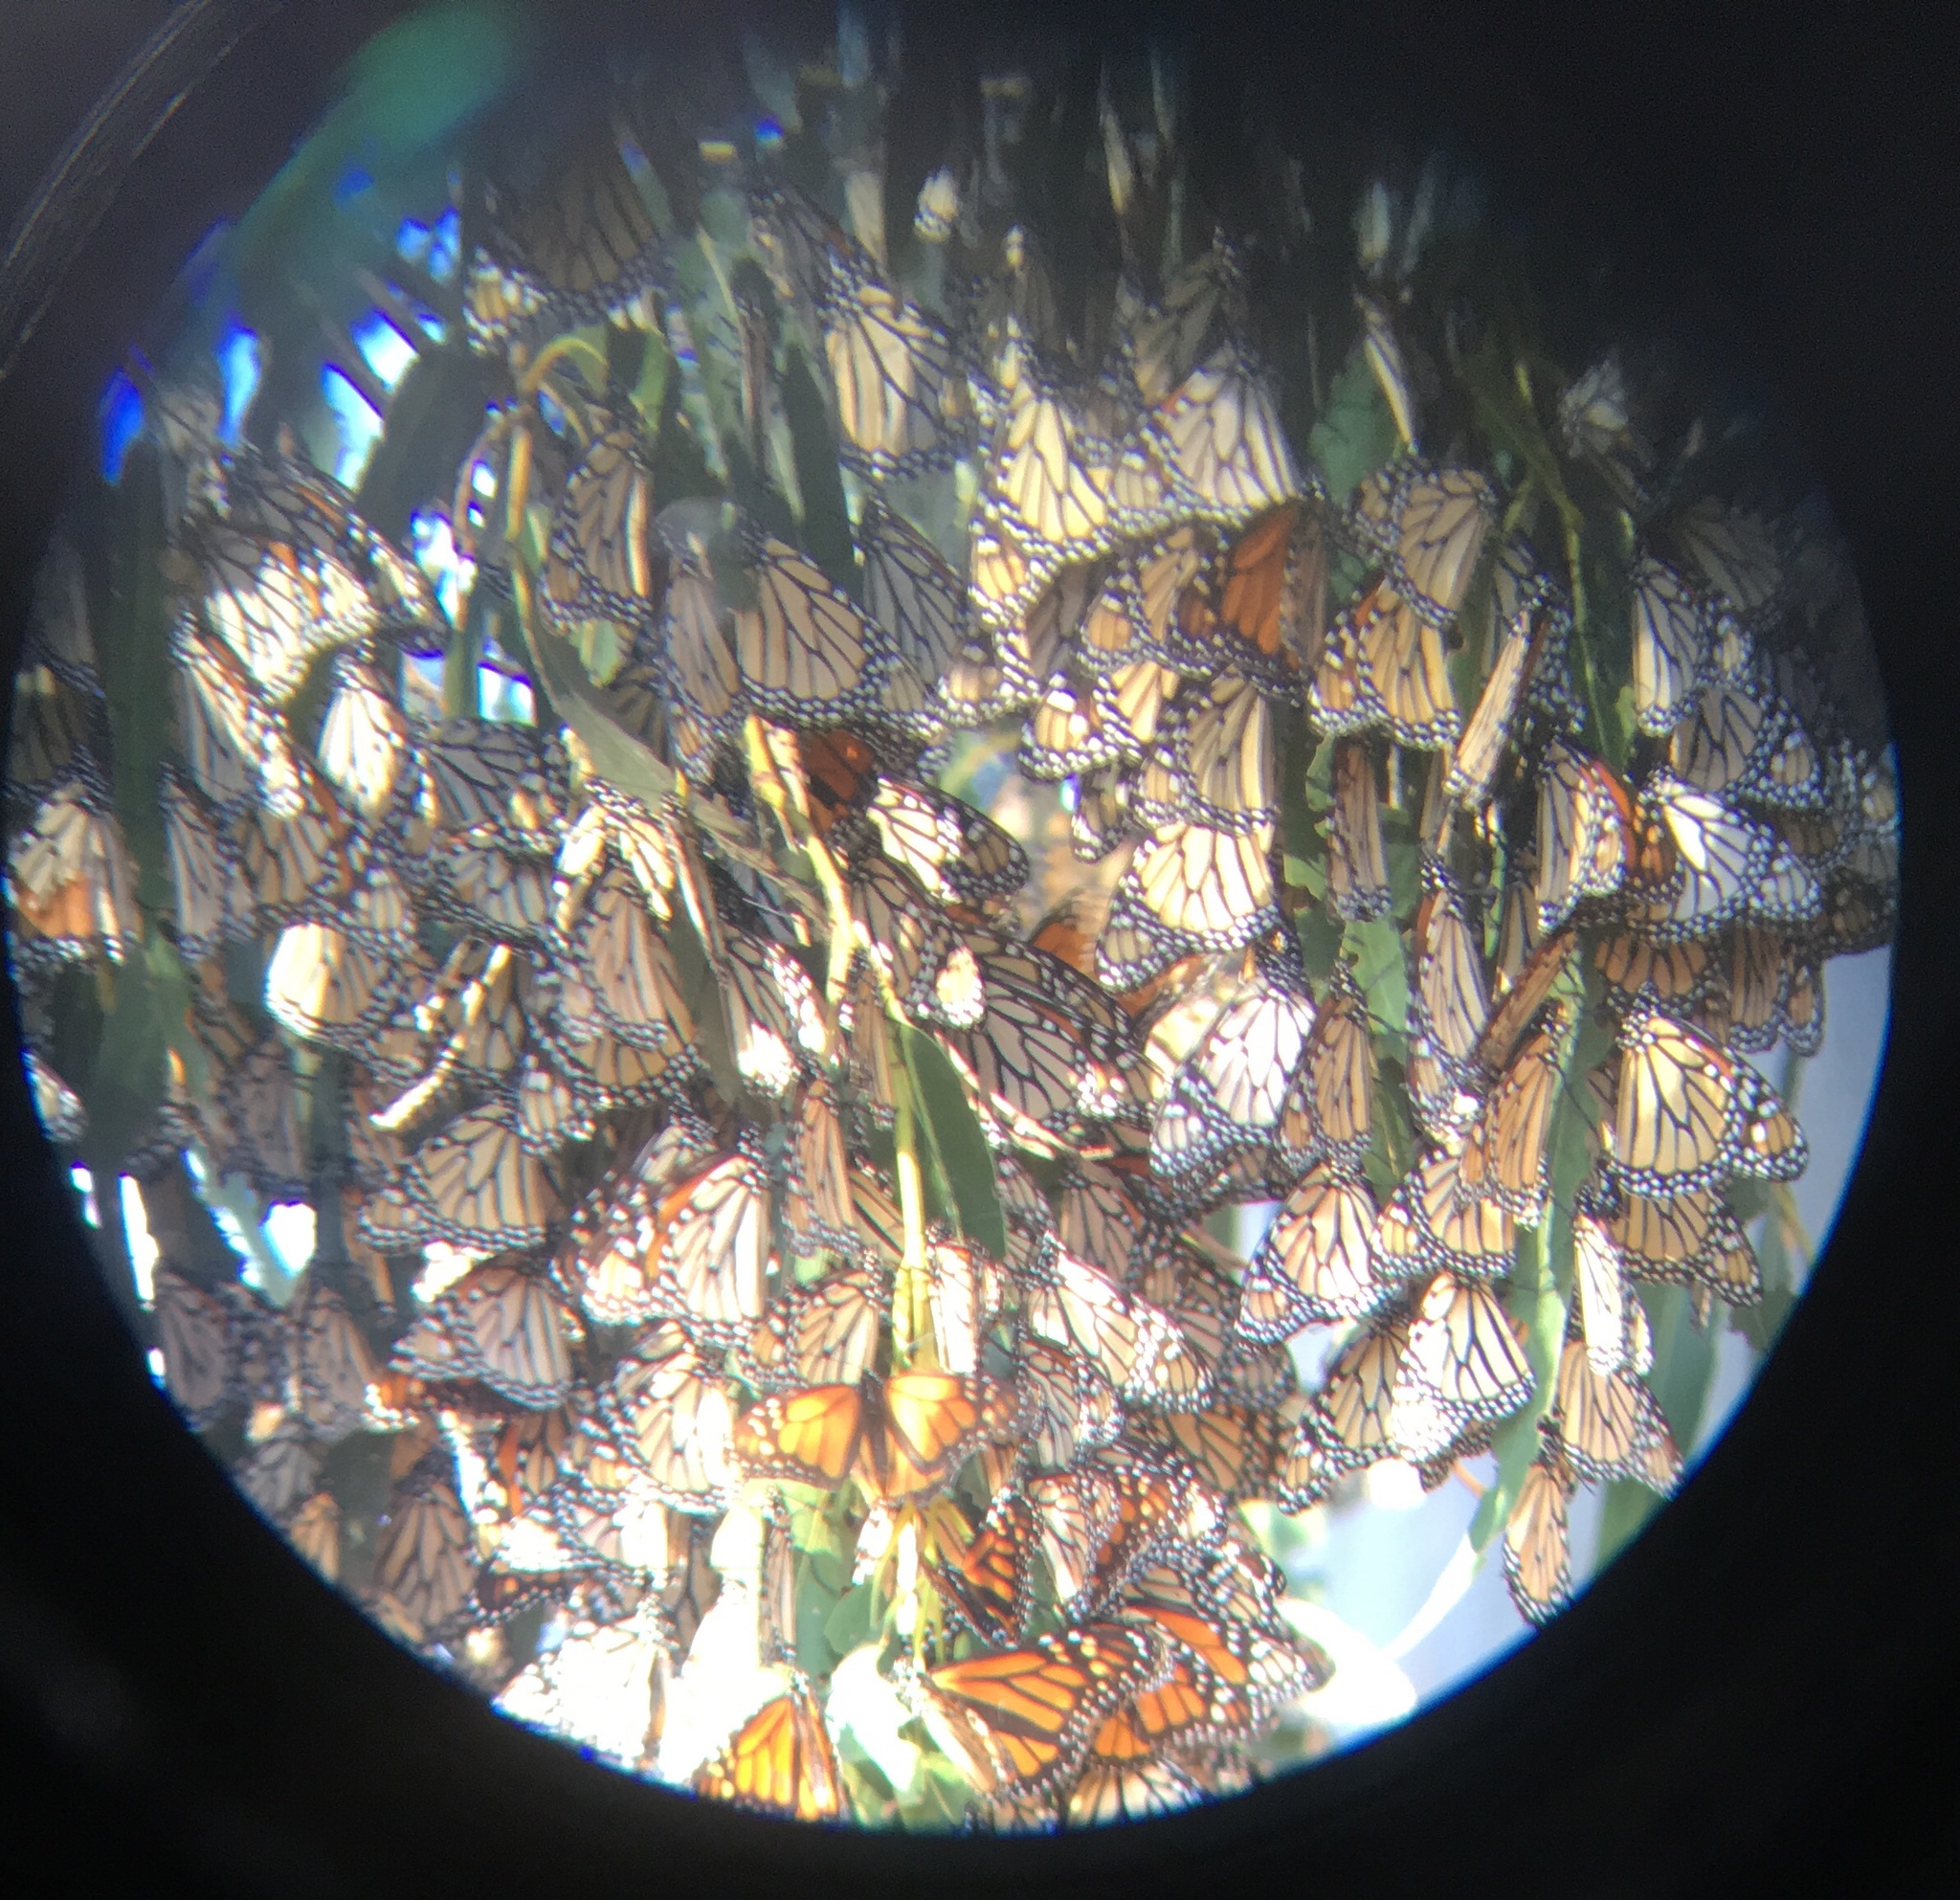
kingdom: Animalia
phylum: Arthropoda
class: Insecta
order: Lepidoptera
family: Nymphalidae
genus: Danaus
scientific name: Danaus plexippus
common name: Monarch
